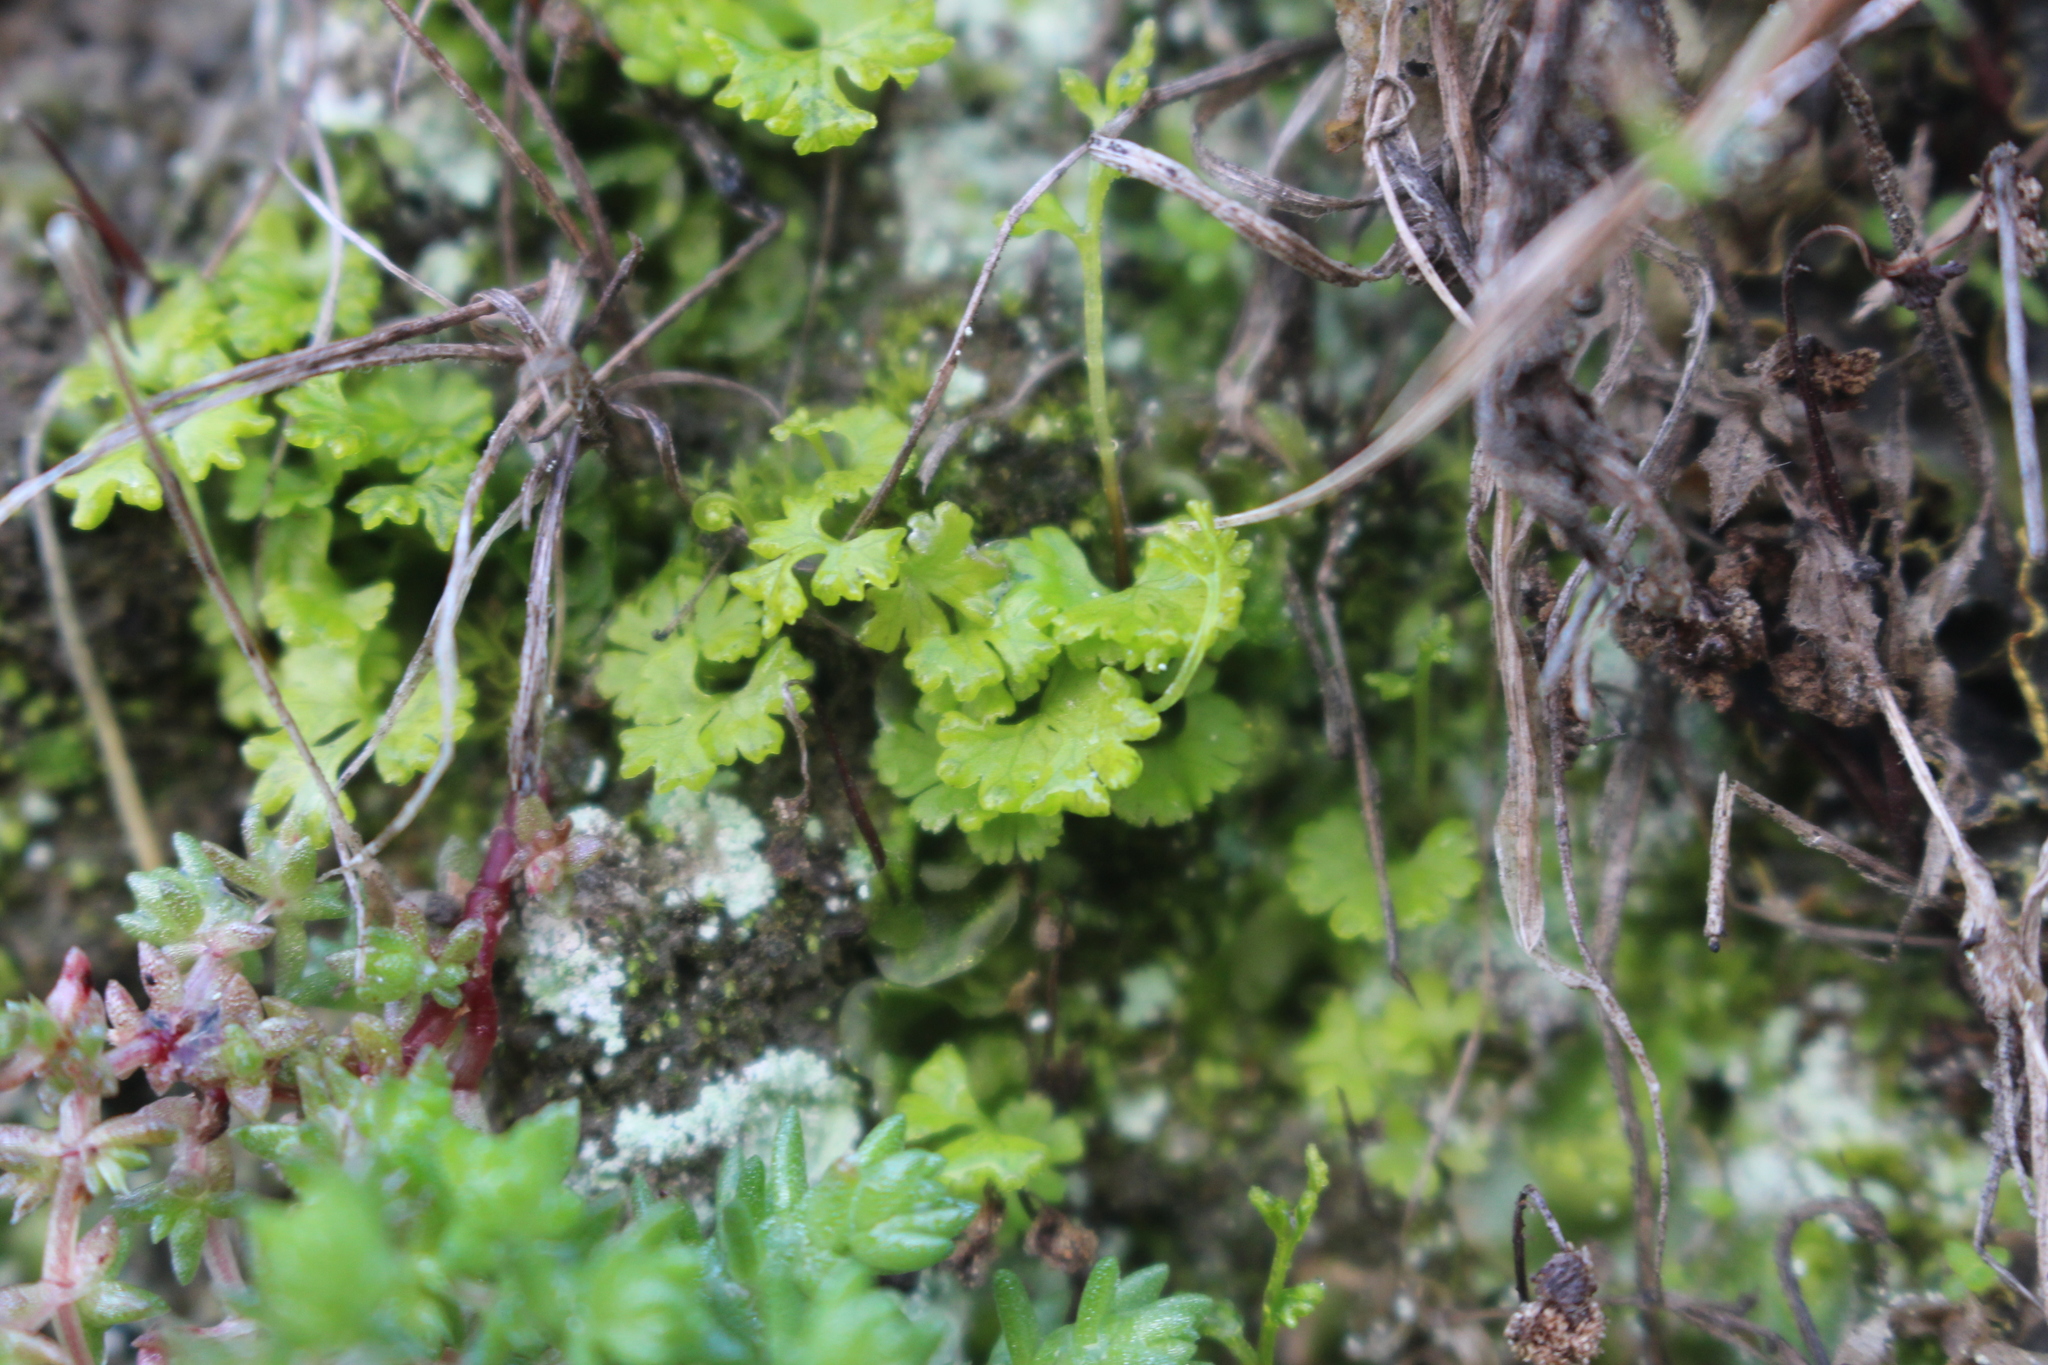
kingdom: Plantae
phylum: Tracheophyta
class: Polypodiopsida
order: Polypodiales
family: Pteridaceae
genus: Anogramma
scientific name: Anogramma leptophylla
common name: Jersey fern
